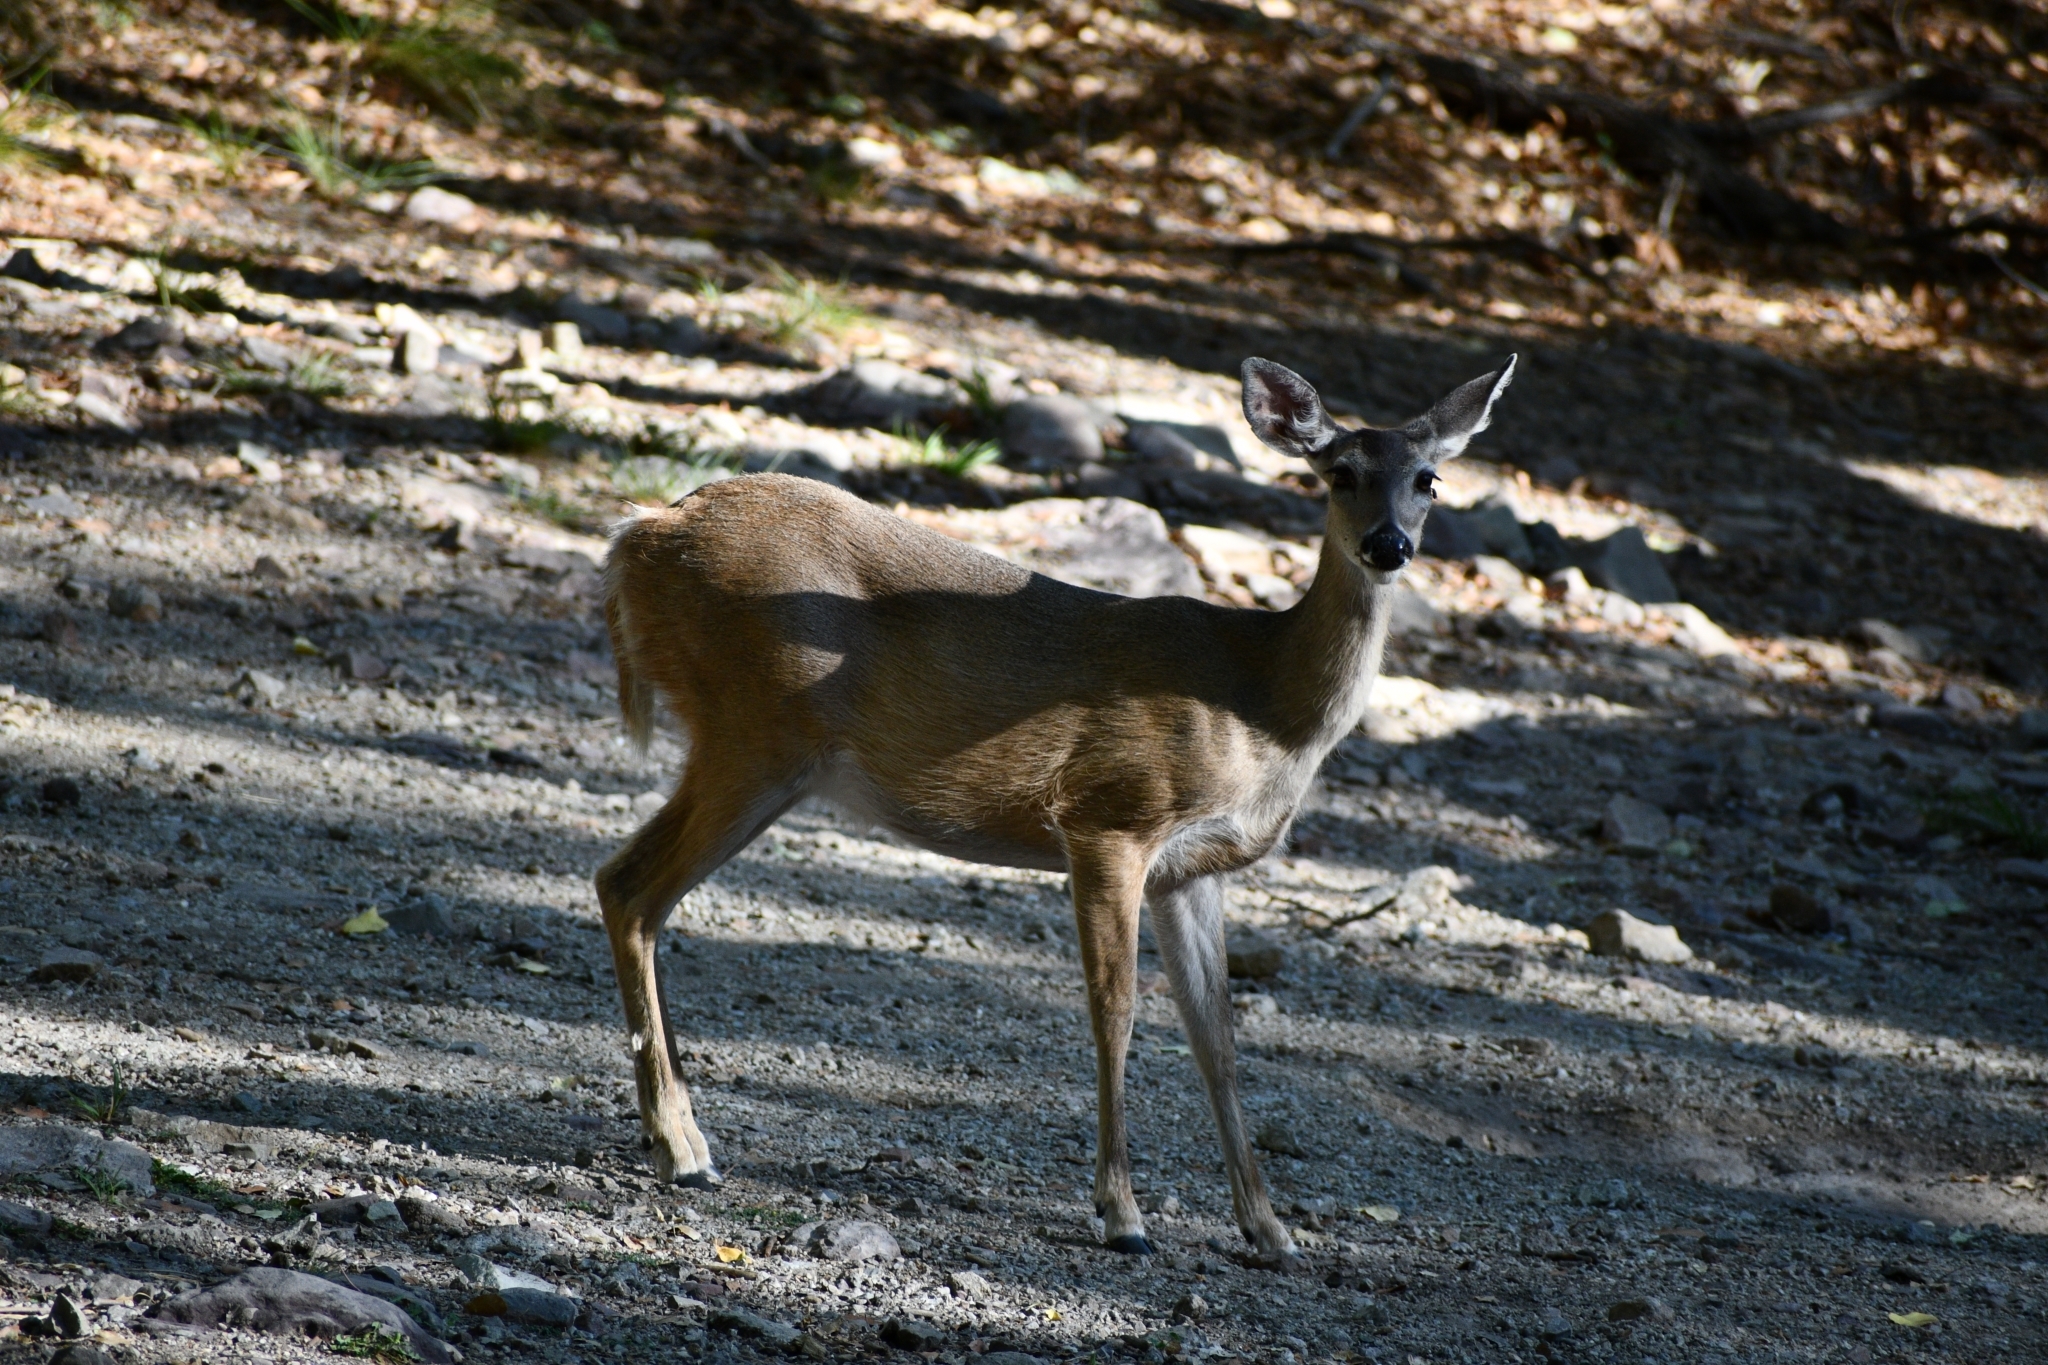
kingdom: Animalia
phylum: Chordata
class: Mammalia
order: Artiodactyla
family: Cervidae
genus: Odocoileus
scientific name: Odocoileus virginianus
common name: White-tailed deer
